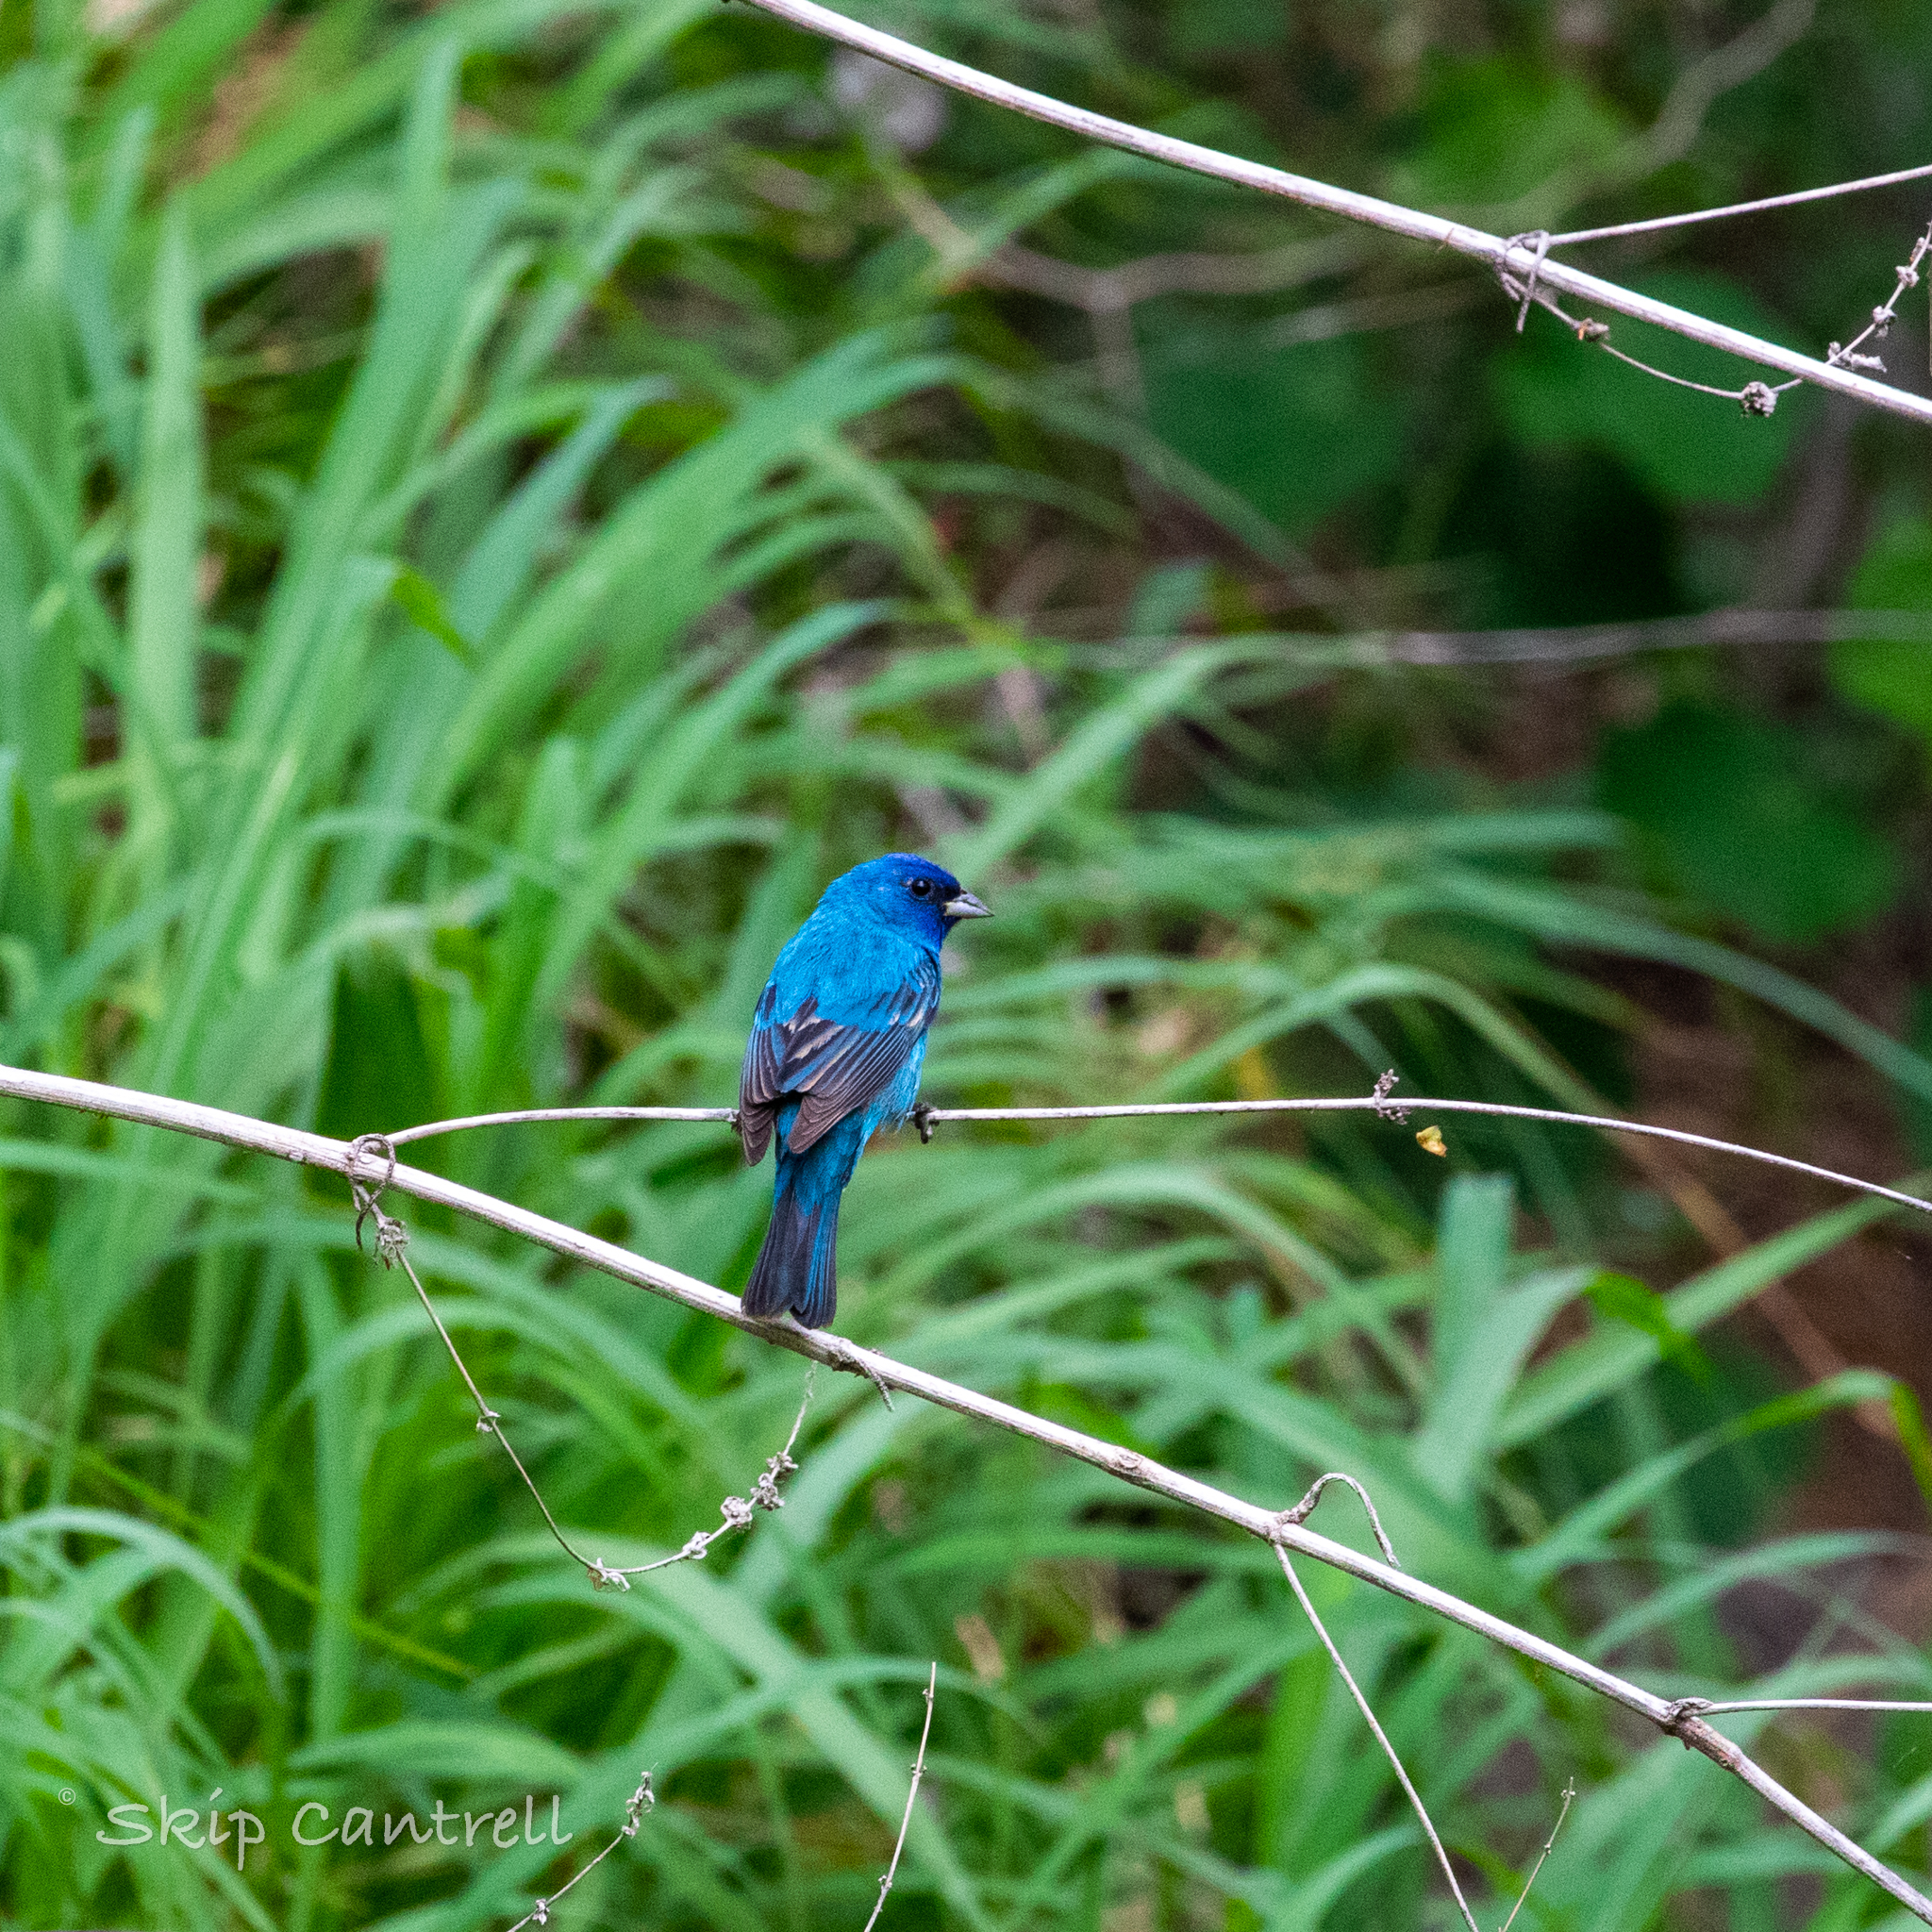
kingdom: Animalia
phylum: Chordata
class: Aves
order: Passeriformes
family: Cardinalidae
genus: Passerina
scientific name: Passerina cyanea
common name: Indigo bunting
